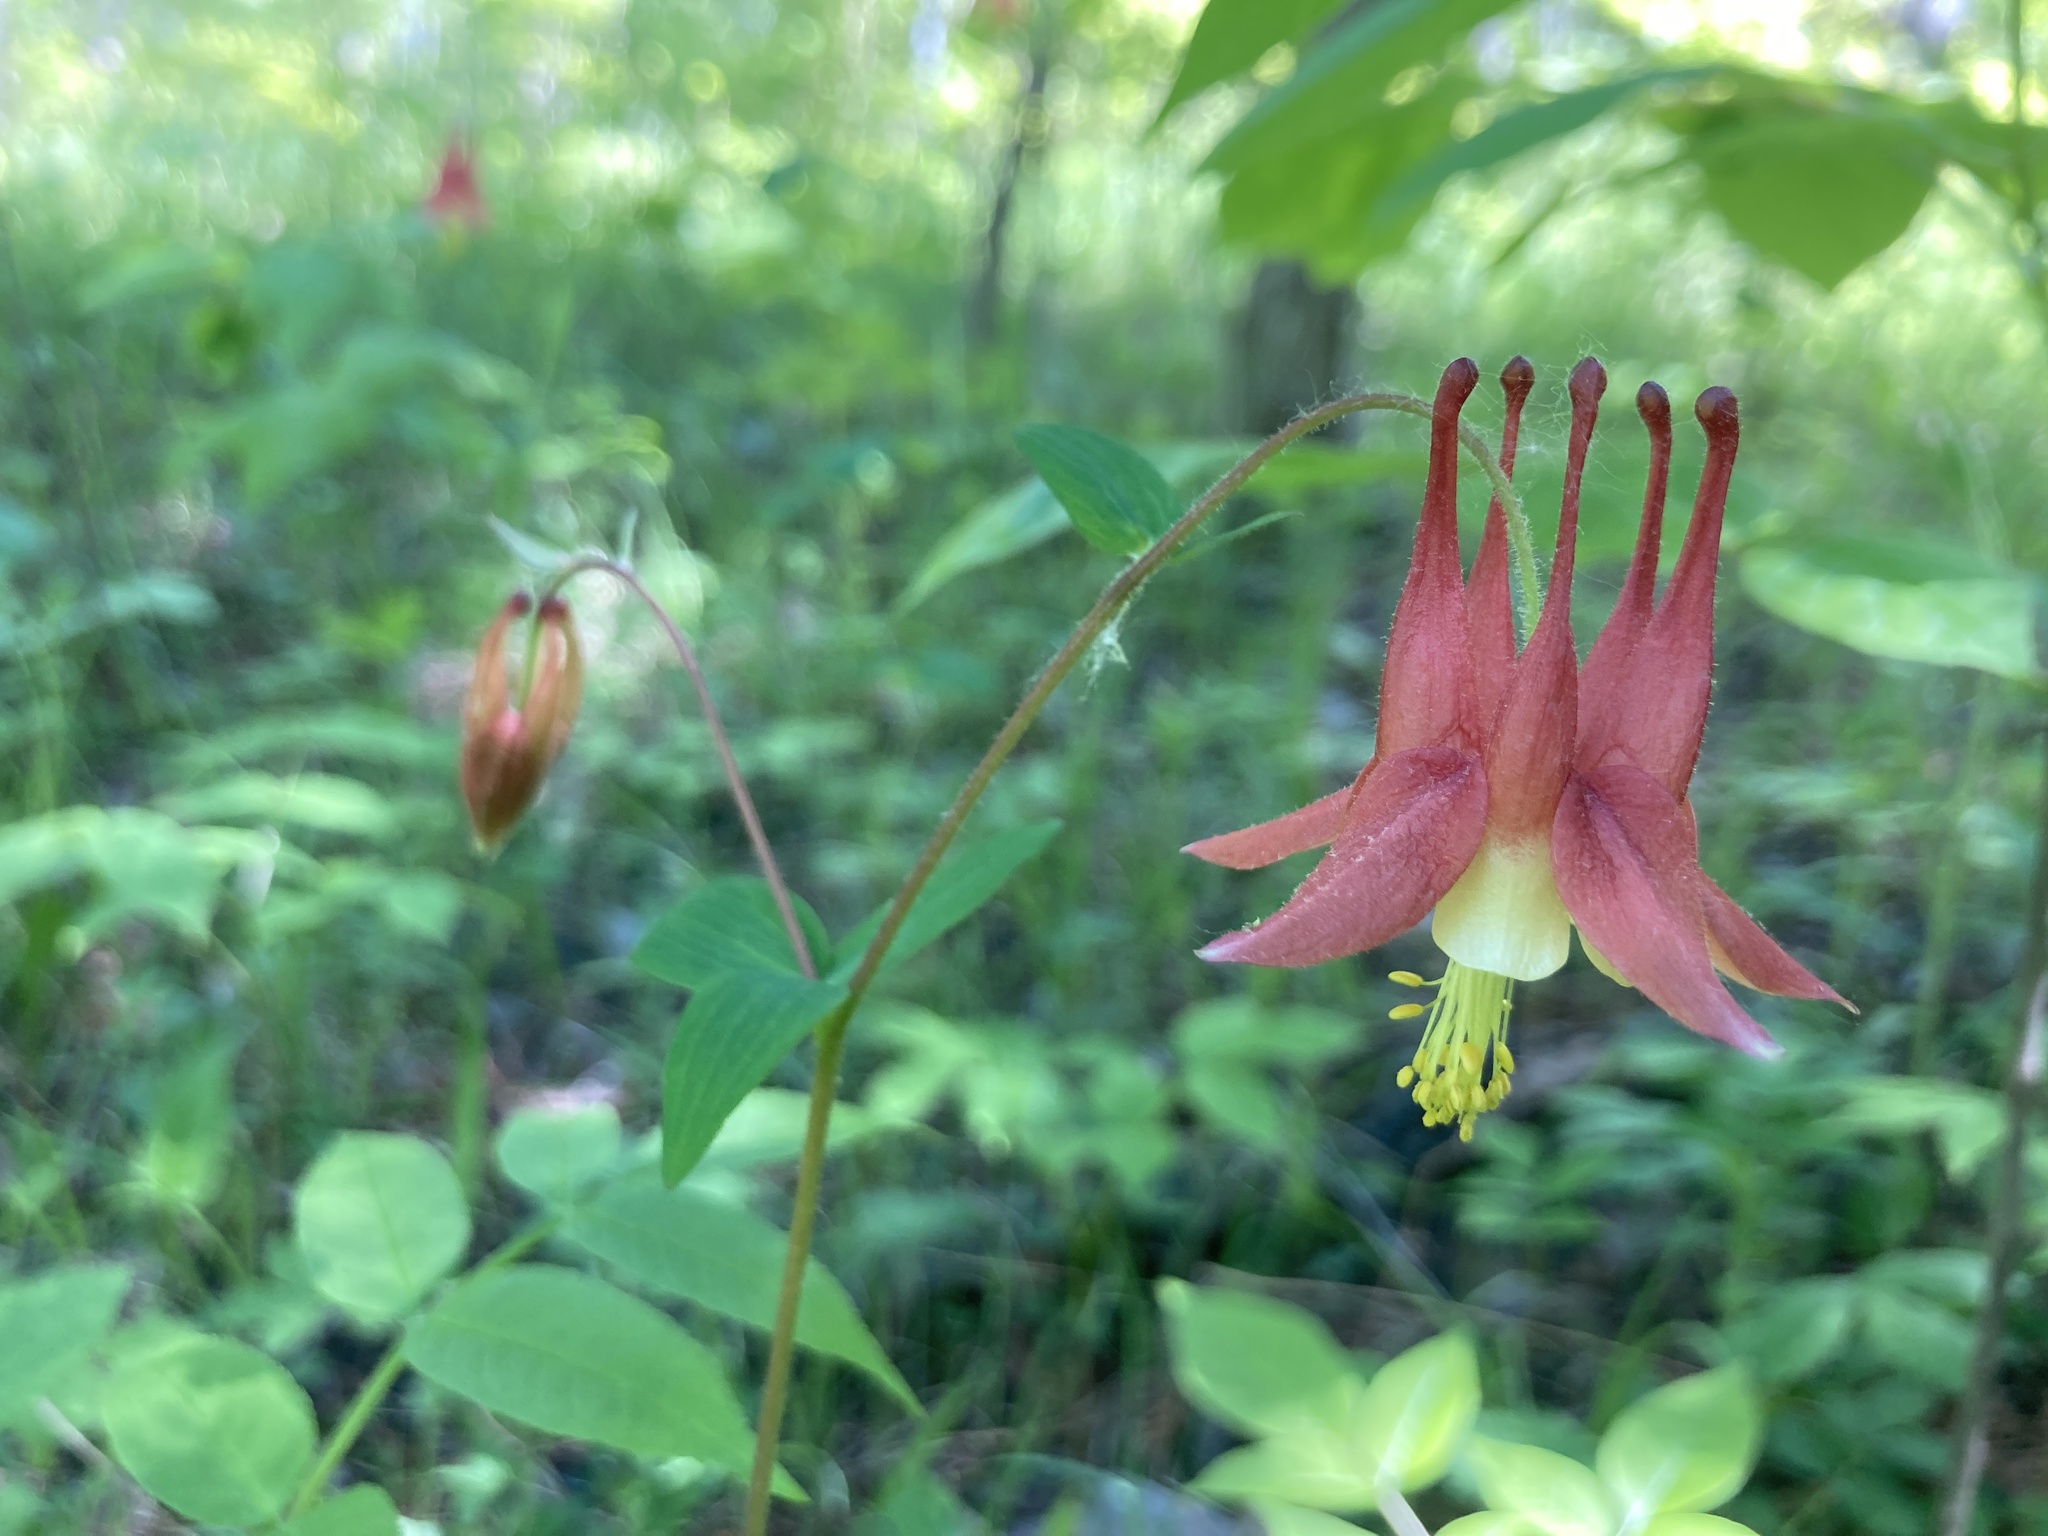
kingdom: Plantae
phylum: Tracheophyta
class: Magnoliopsida
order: Ranunculales
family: Ranunculaceae
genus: Aquilegia
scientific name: Aquilegia canadensis
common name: American columbine
